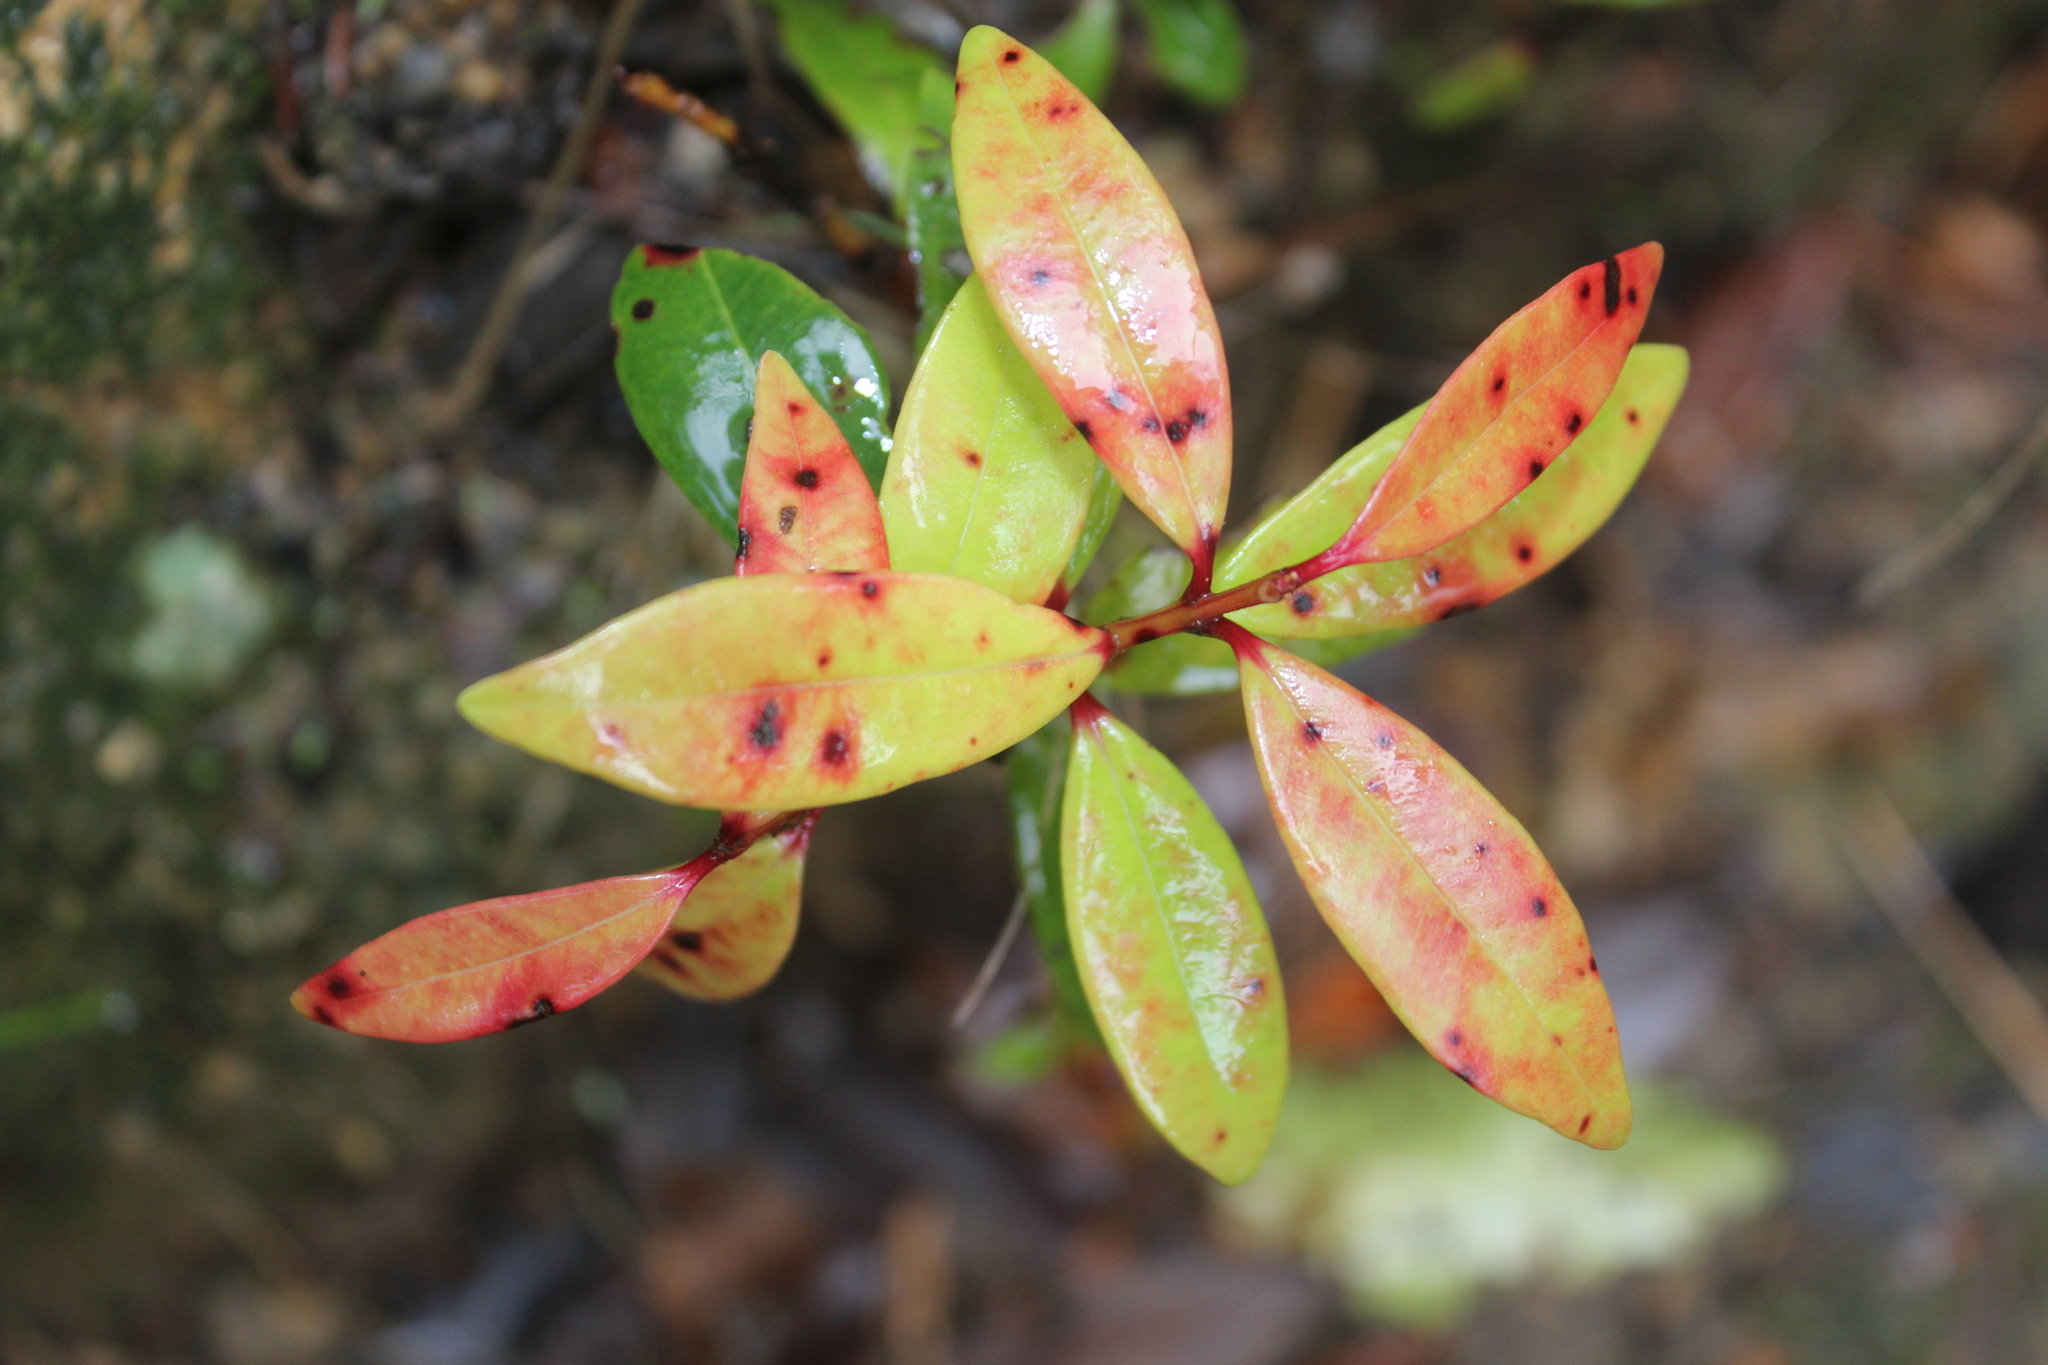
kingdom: Fungi
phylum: Basidiomycota
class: Pucciniomycetes
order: Pucciniales
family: Sphaerophragmiaceae
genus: Austropuccinia
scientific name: Austropuccinia psidii
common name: Myrtle rust
